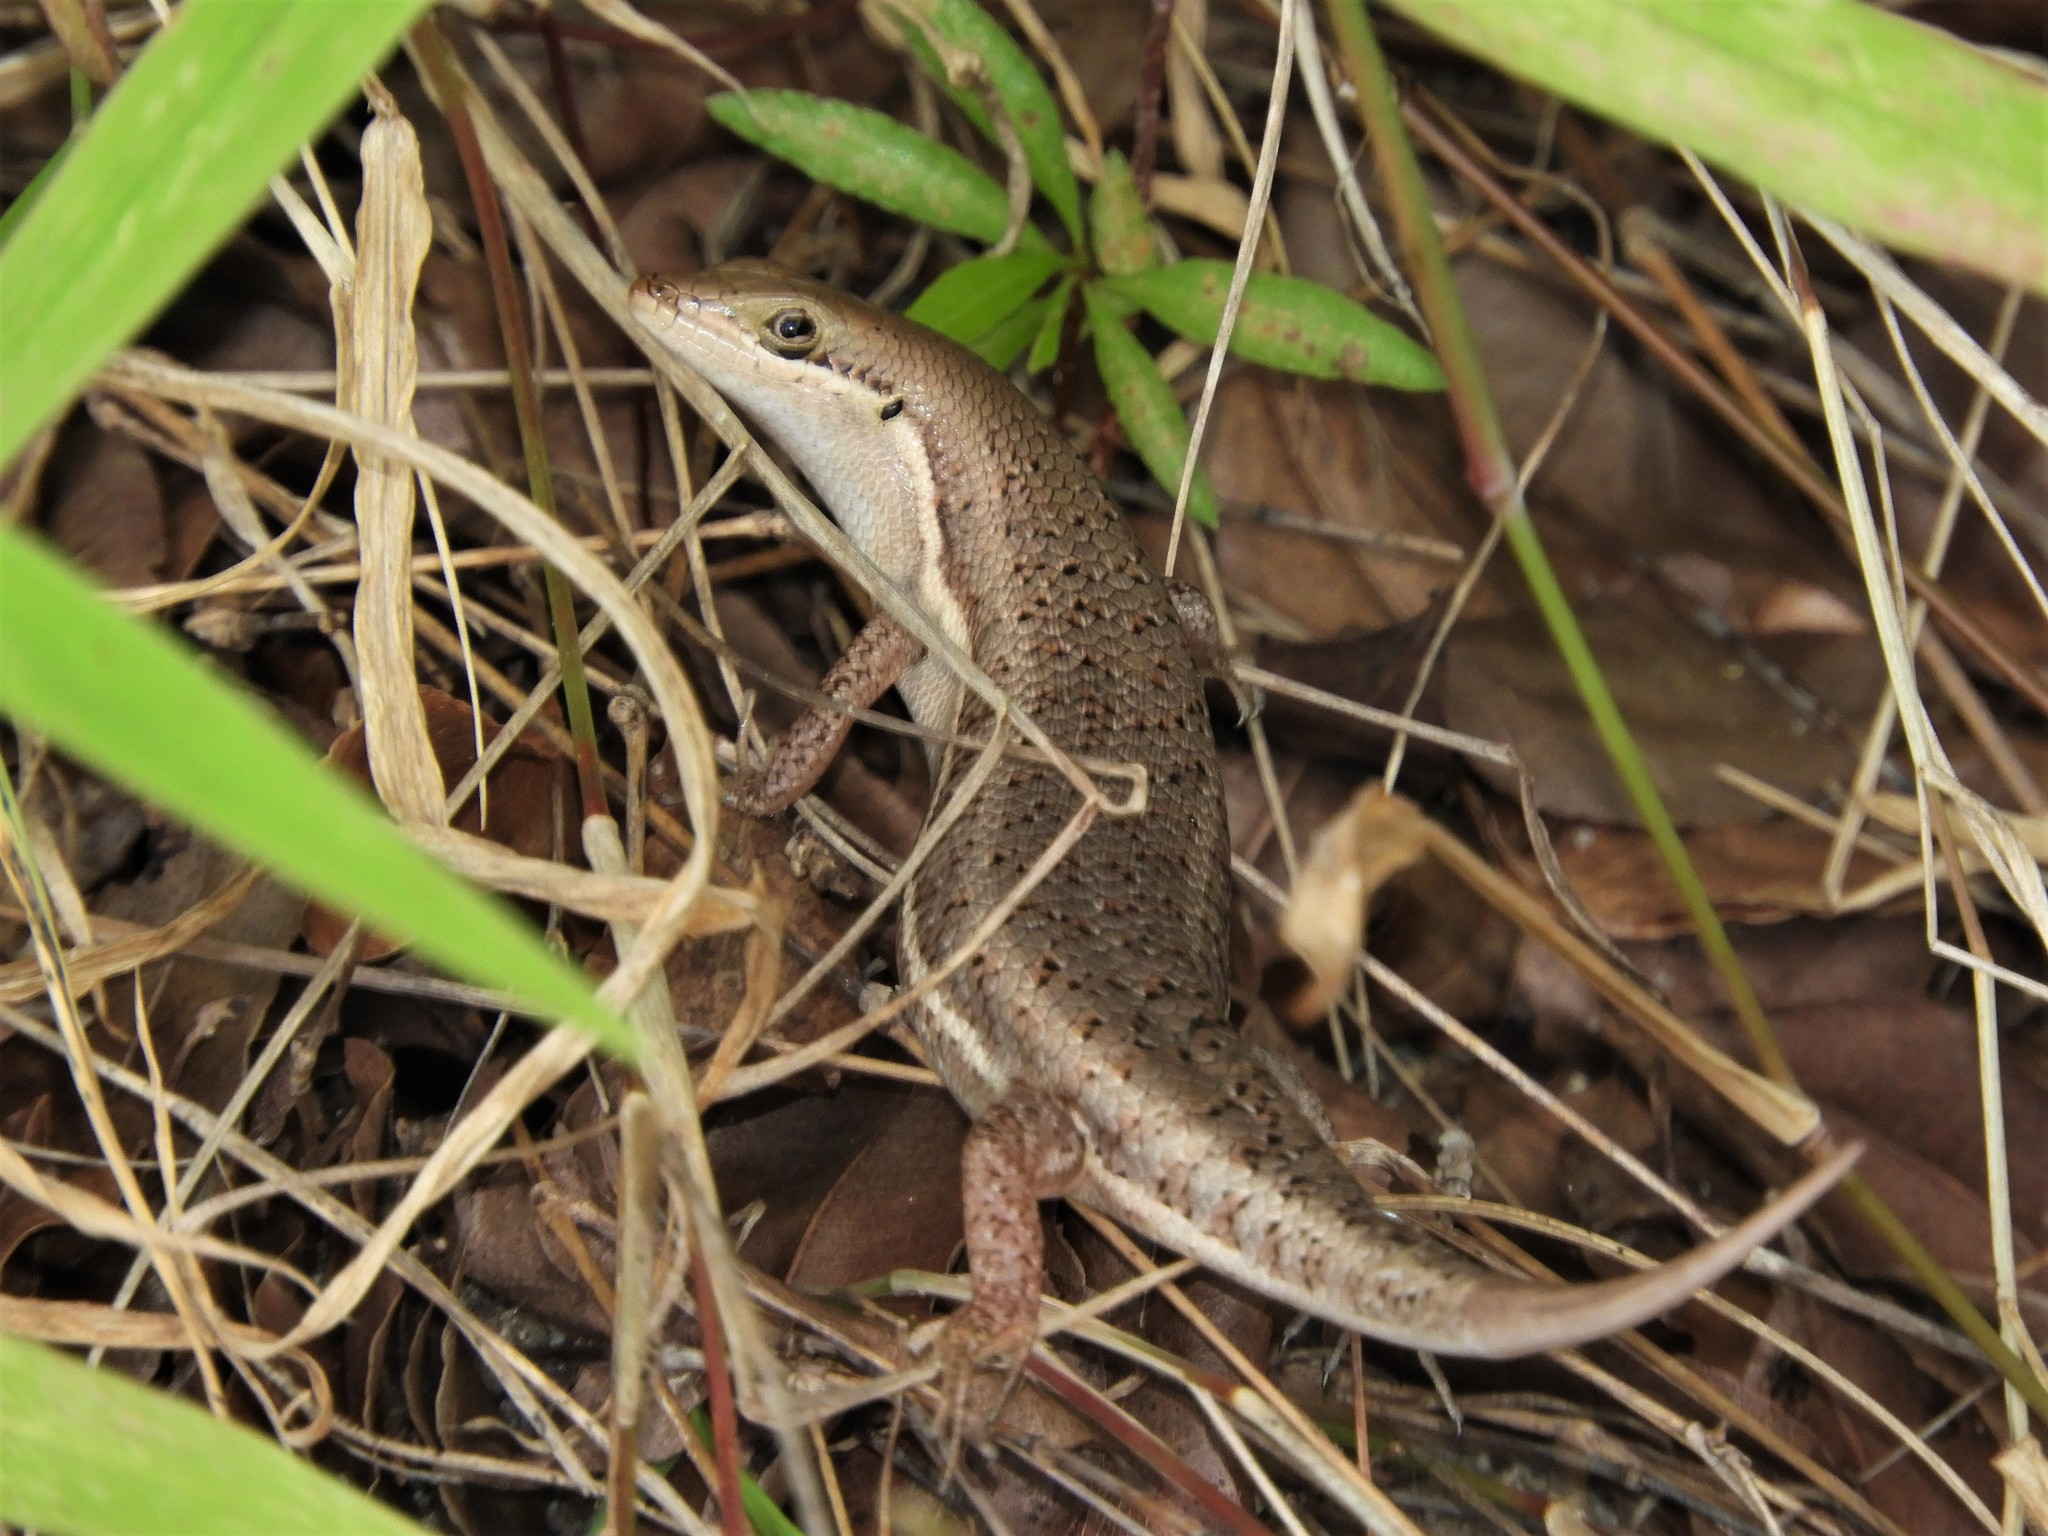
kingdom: Animalia
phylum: Chordata
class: Squamata
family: Scincidae
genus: Trachylepis
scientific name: Trachylepis varia
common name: Eastern variable skink
